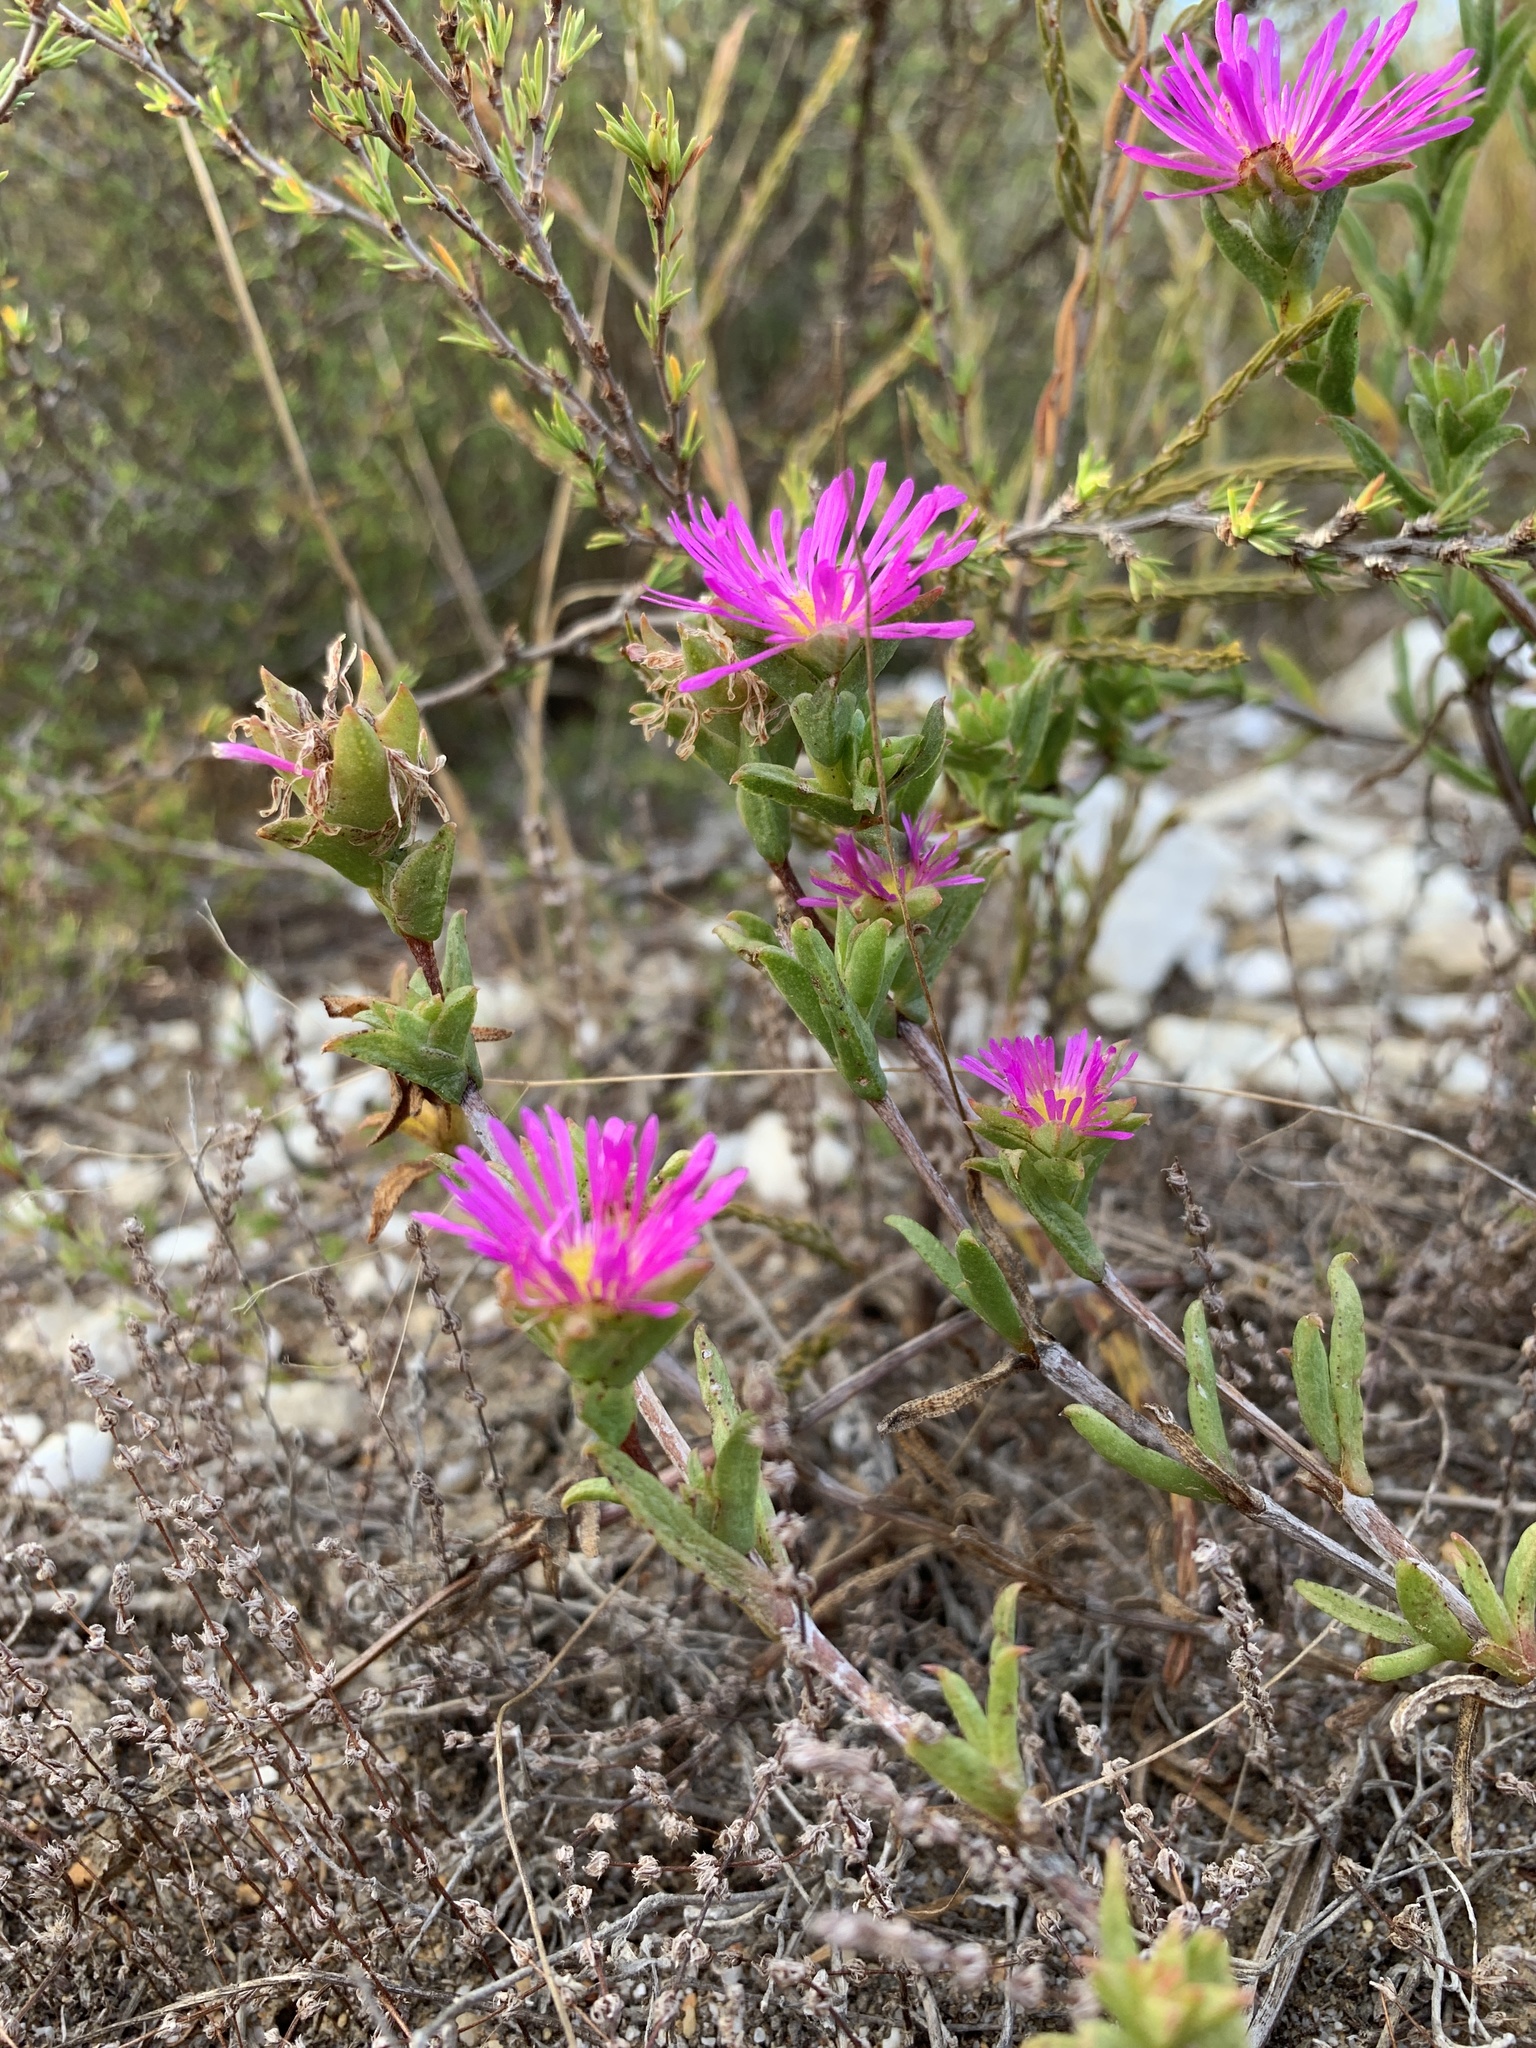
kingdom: Plantae
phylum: Tracheophyta
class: Magnoliopsida
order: Caryophyllales
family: Aizoaceae
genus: Erepsia
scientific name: Erepsia anceps
